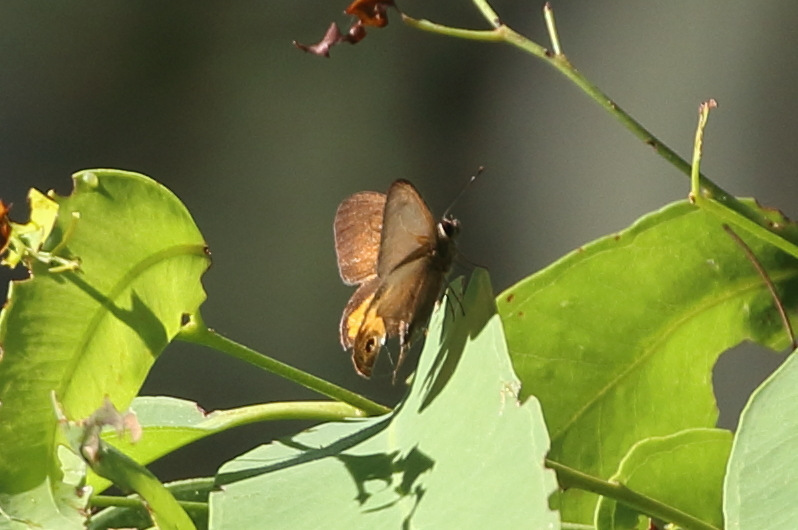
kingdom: Animalia
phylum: Arthropoda
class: Insecta
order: Lepidoptera
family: Nymphalidae
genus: Hypocysta
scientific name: Hypocysta metirius
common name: Brown ringlet
